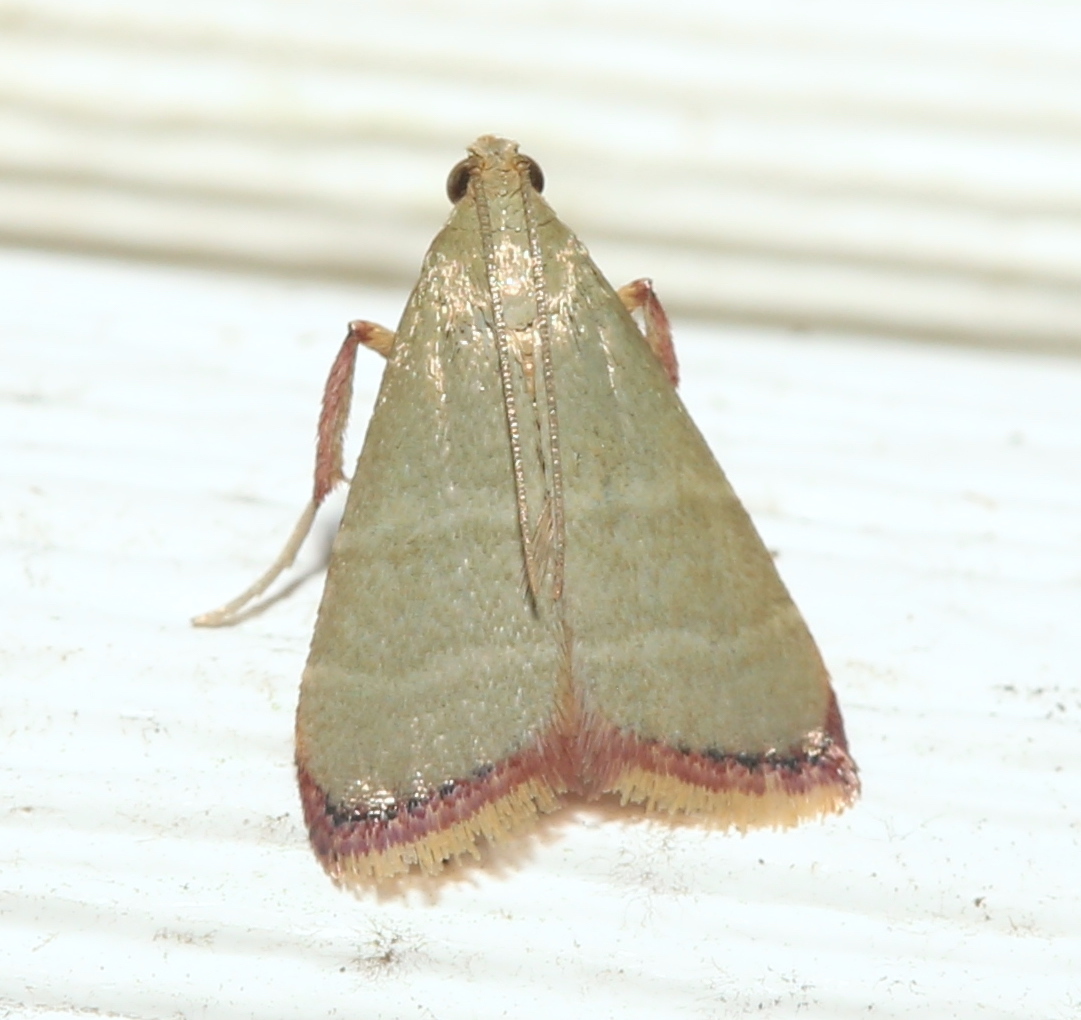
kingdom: Animalia
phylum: Arthropoda
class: Insecta
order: Lepidoptera
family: Pyralidae
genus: Arta
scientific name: Arta olivalis
